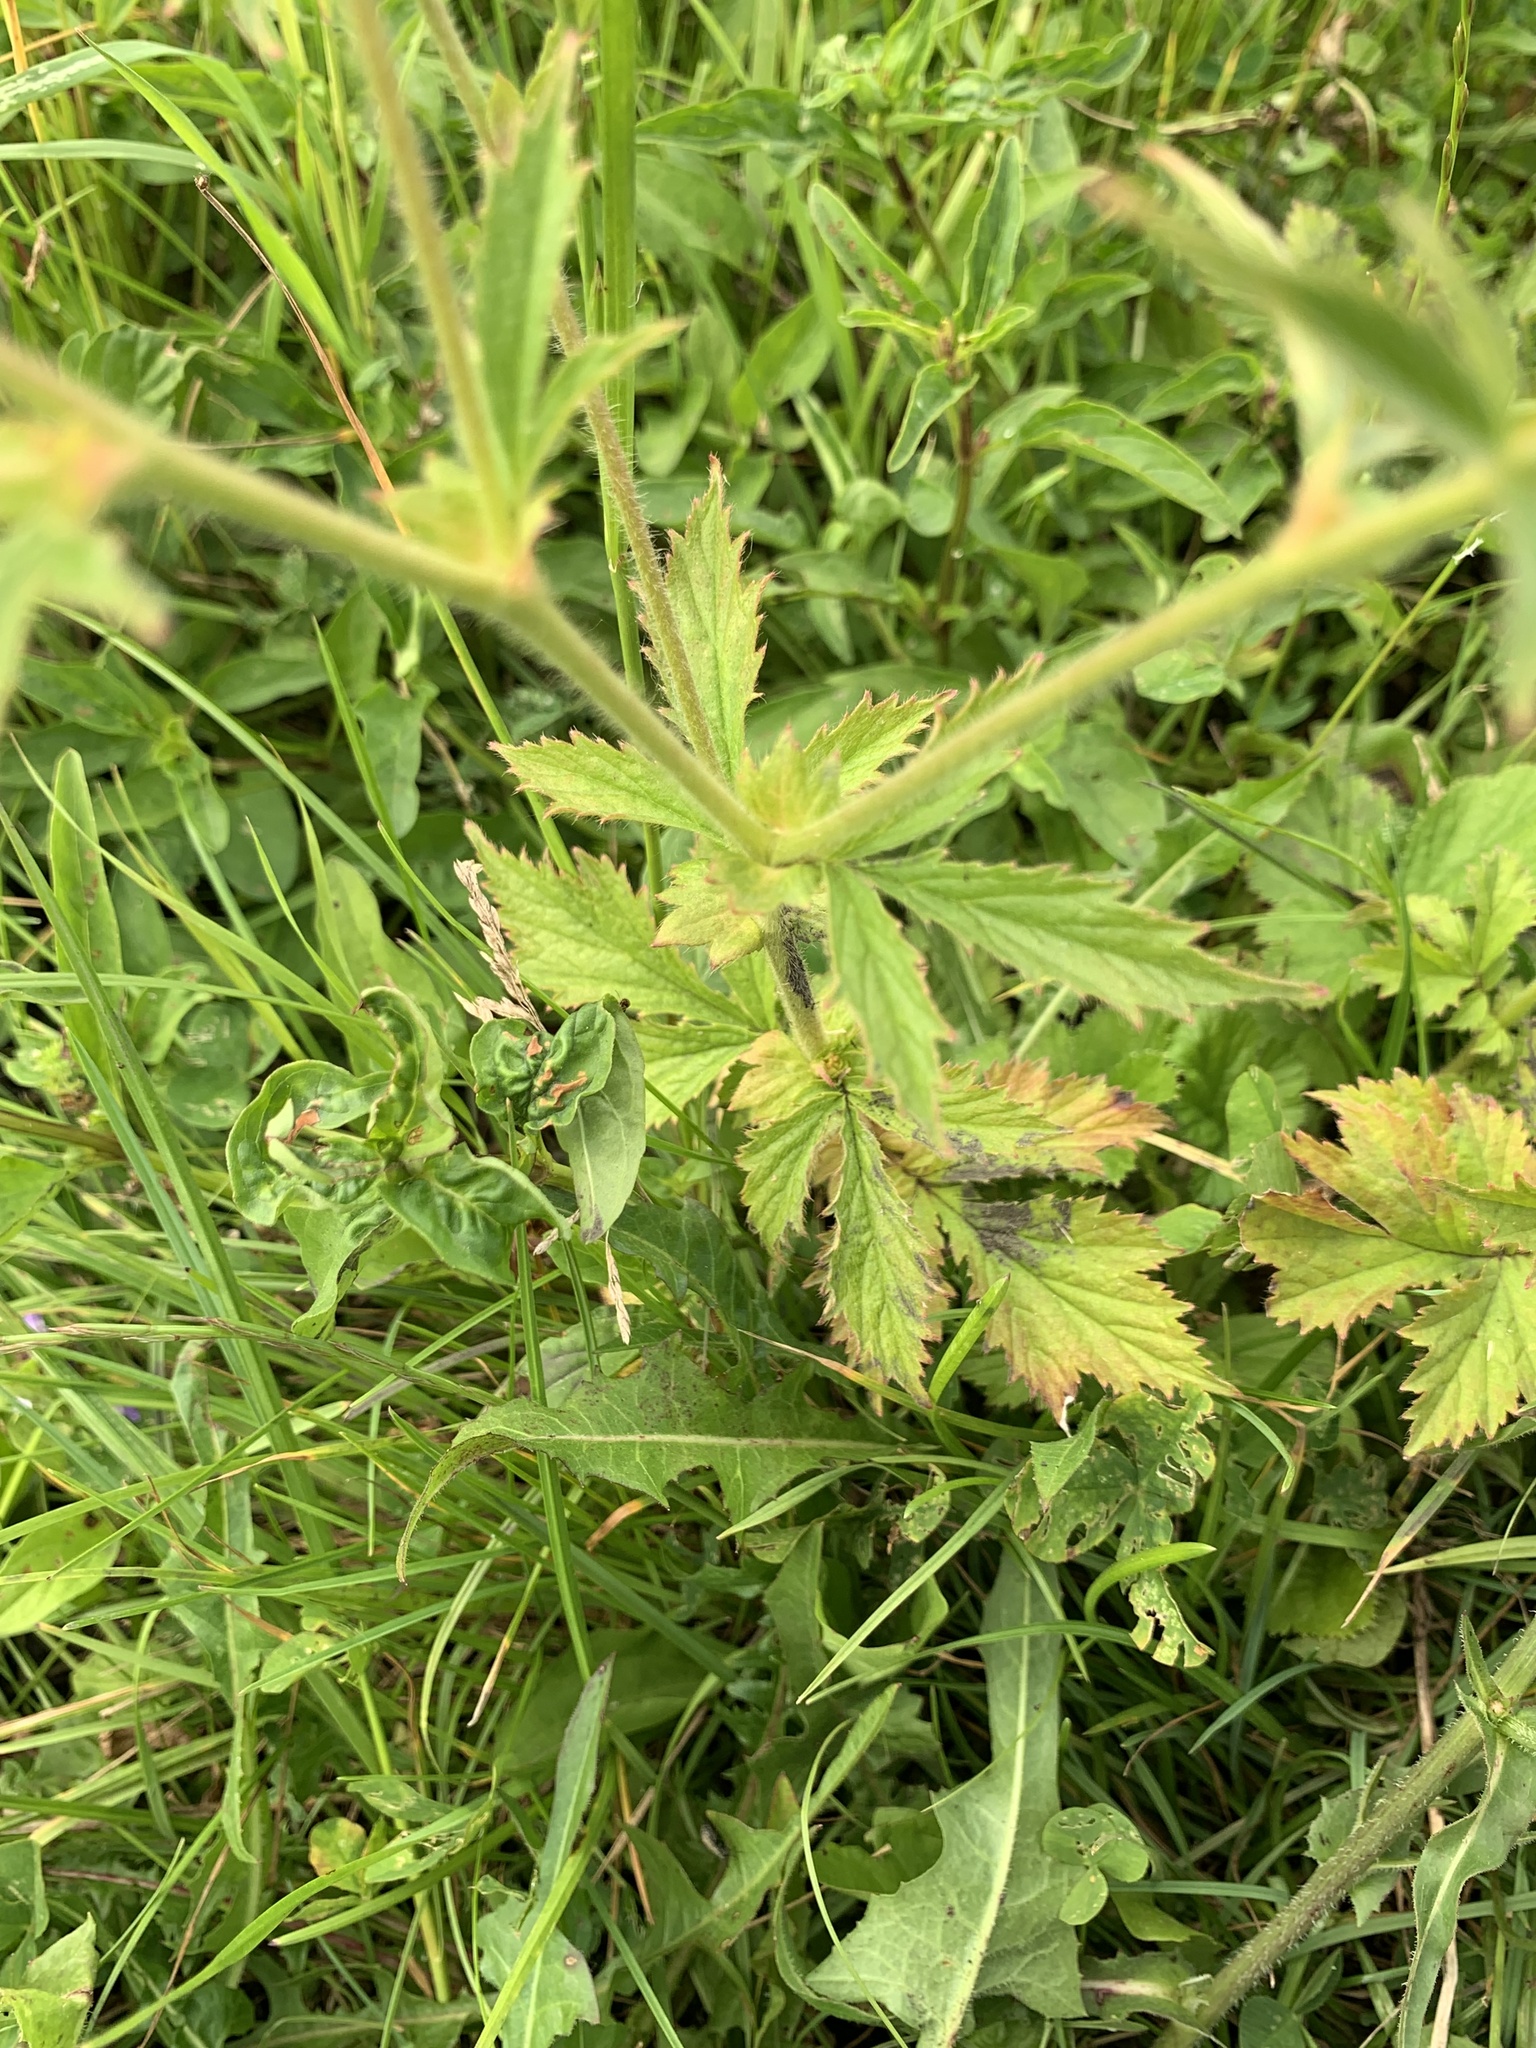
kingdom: Plantae
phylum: Tracheophyta
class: Magnoliopsida
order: Rosales
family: Rosaceae
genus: Geum
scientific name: Geum aleppicum
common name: Yellow avens
